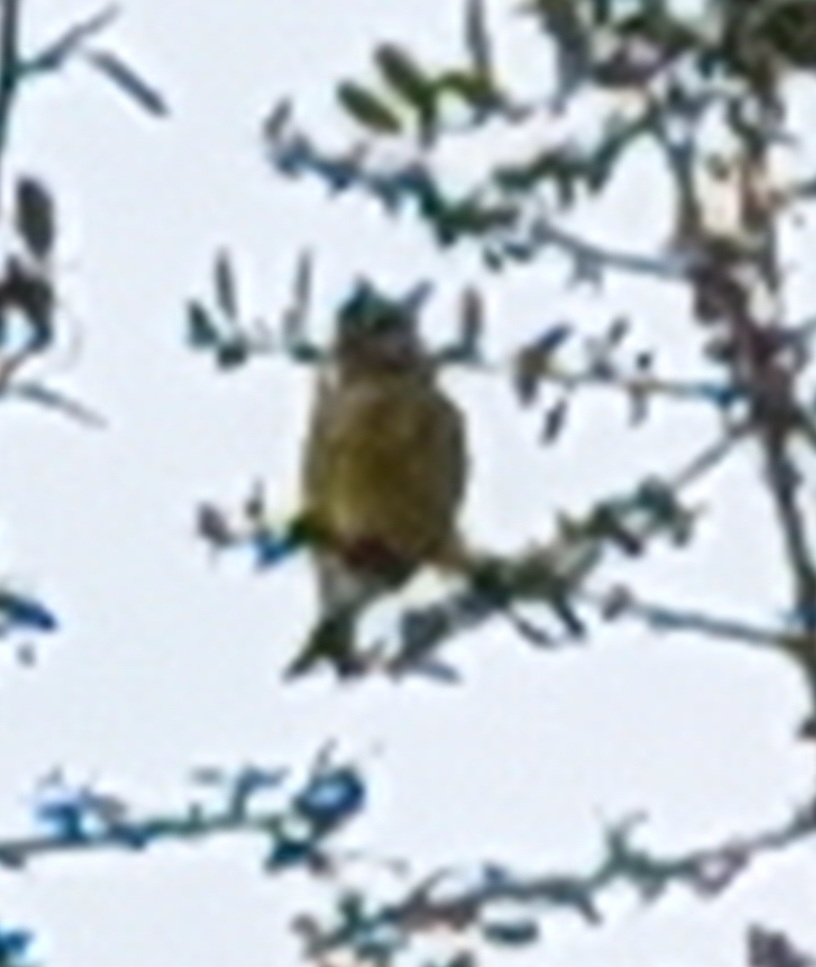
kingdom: Animalia
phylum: Chordata
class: Aves
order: Passeriformes
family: Paridae
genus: Cyanistes
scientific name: Cyanistes caeruleus
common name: Eurasian blue tit
